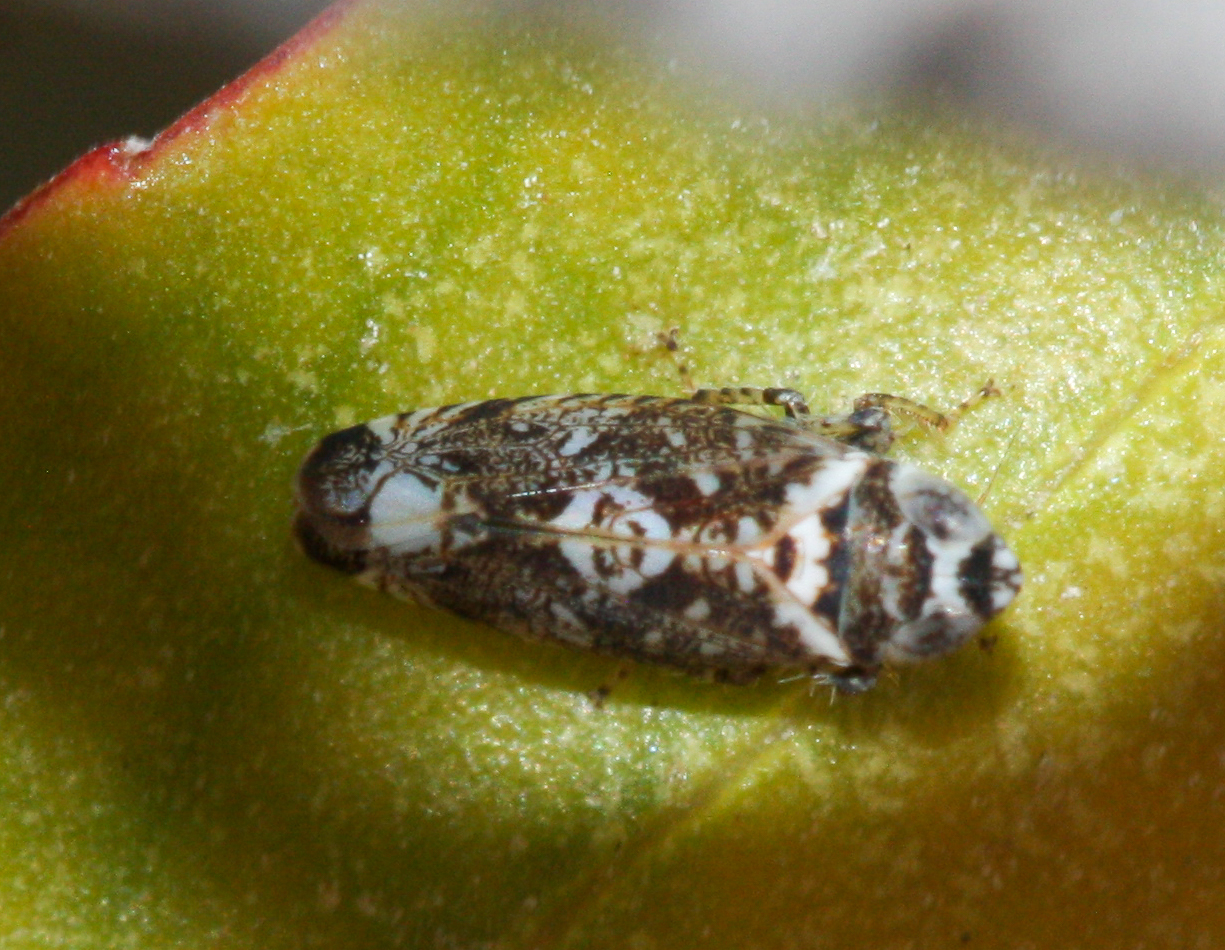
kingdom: Animalia
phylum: Arthropoda
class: Insecta
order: Hemiptera
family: Cicadellidae
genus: Scaphytopius
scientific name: Scaphytopius nigricollis
